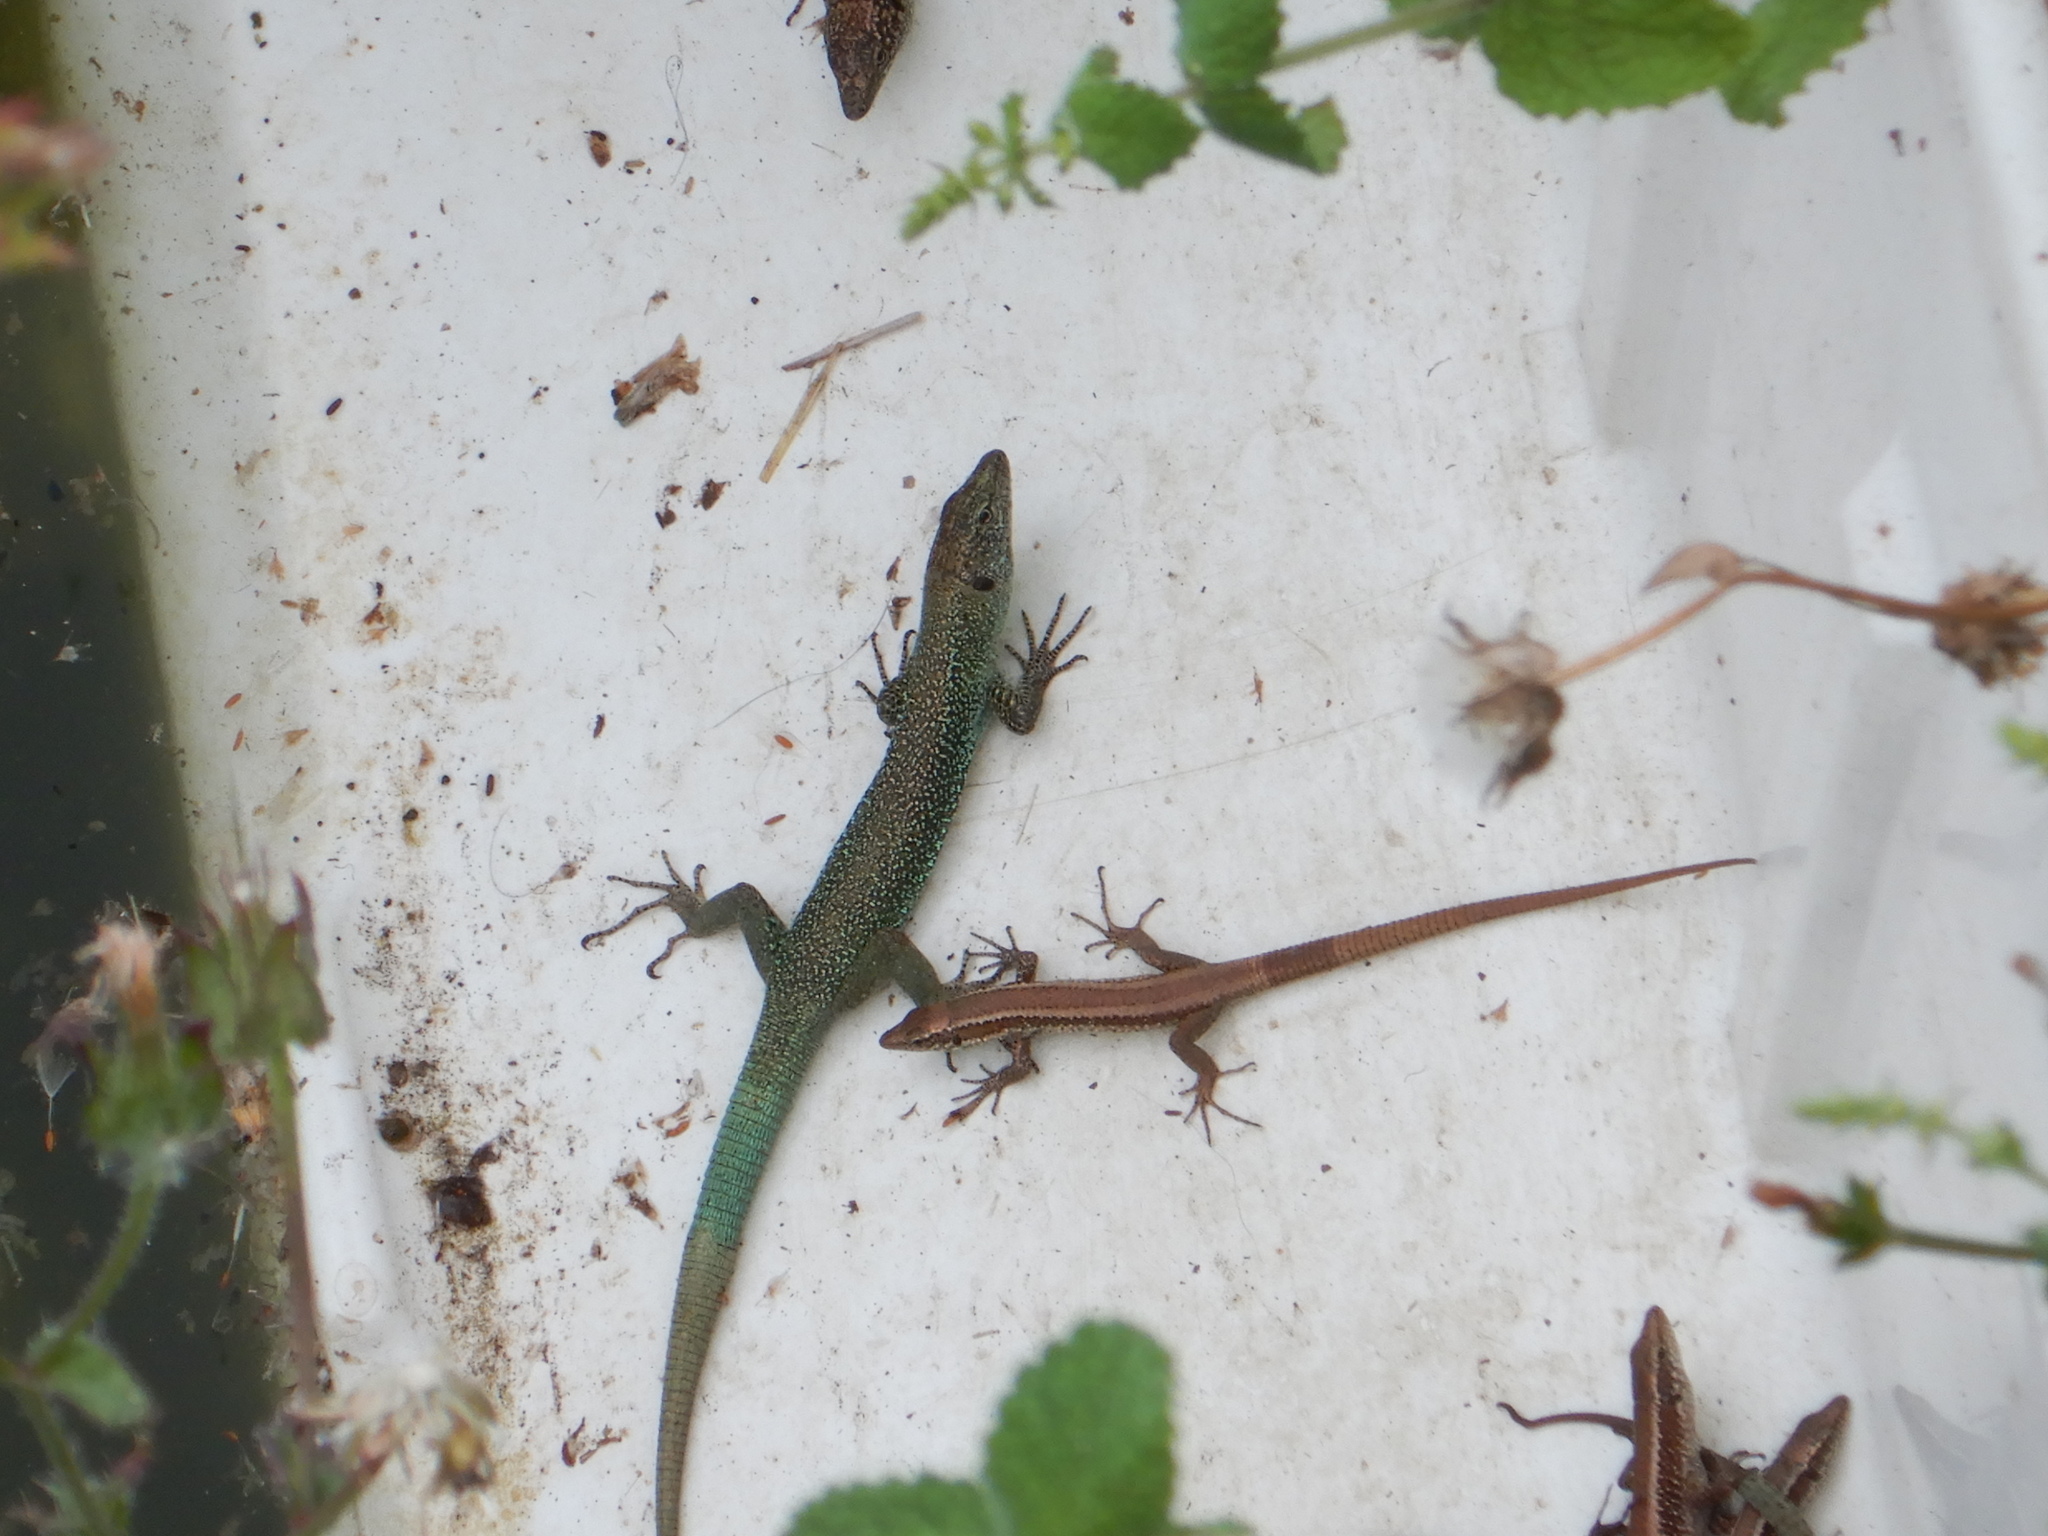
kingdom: Animalia
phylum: Chordata
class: Squamata
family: Lacertidae
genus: Teira
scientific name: Teira dugesii
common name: Madeira lizard
